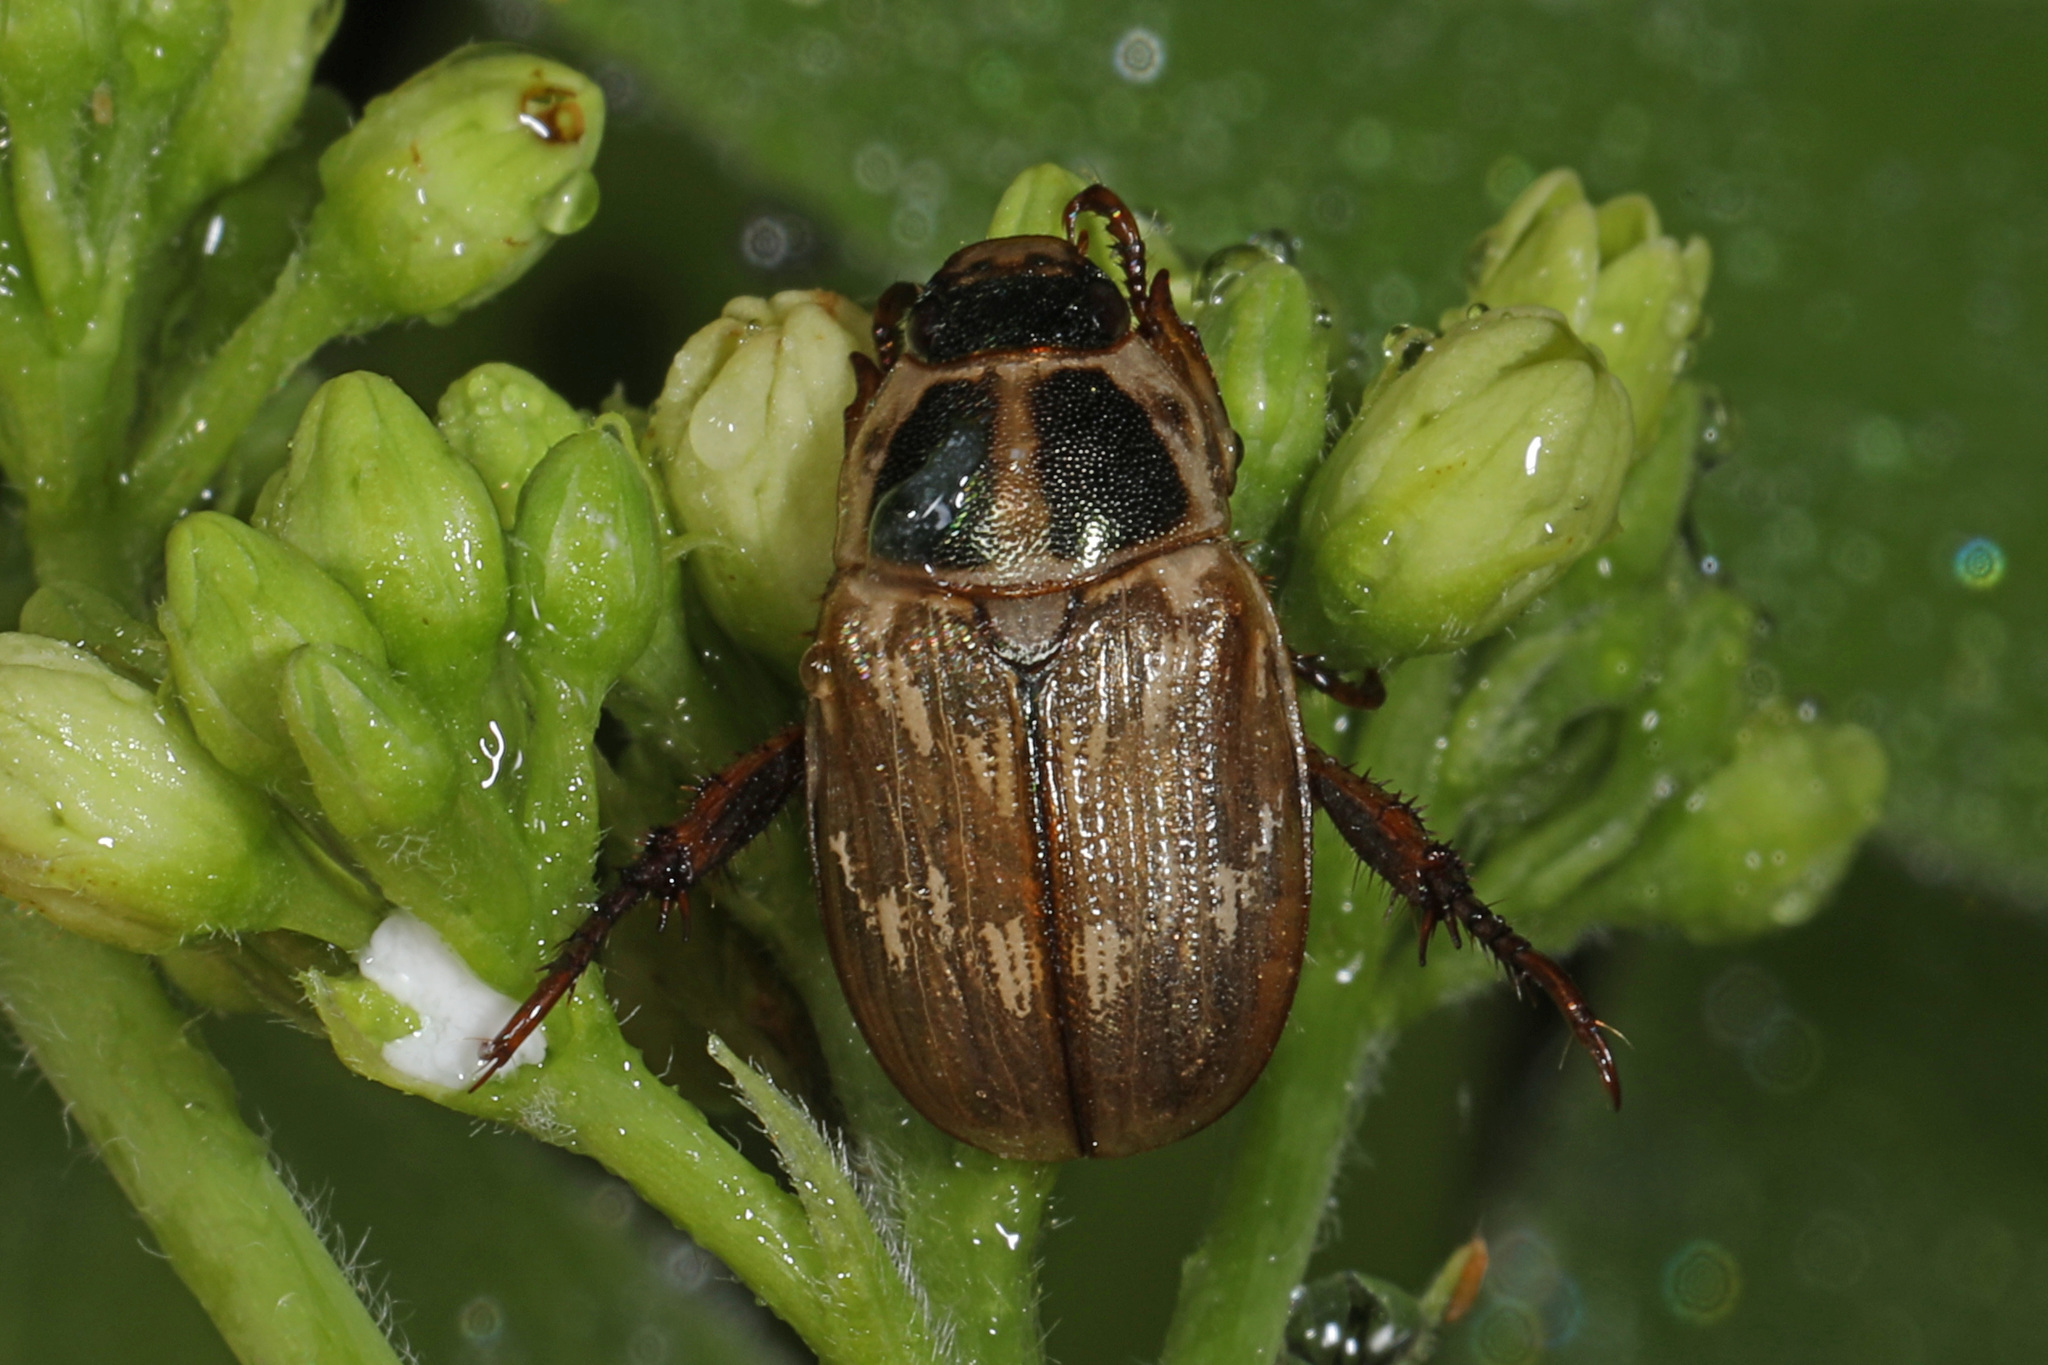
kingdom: Animalia
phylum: Arthropoda
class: Insecta
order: Coleoptera
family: Scarabaeidae
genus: Exomala
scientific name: Exomala orientalis
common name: Oriental beetle
